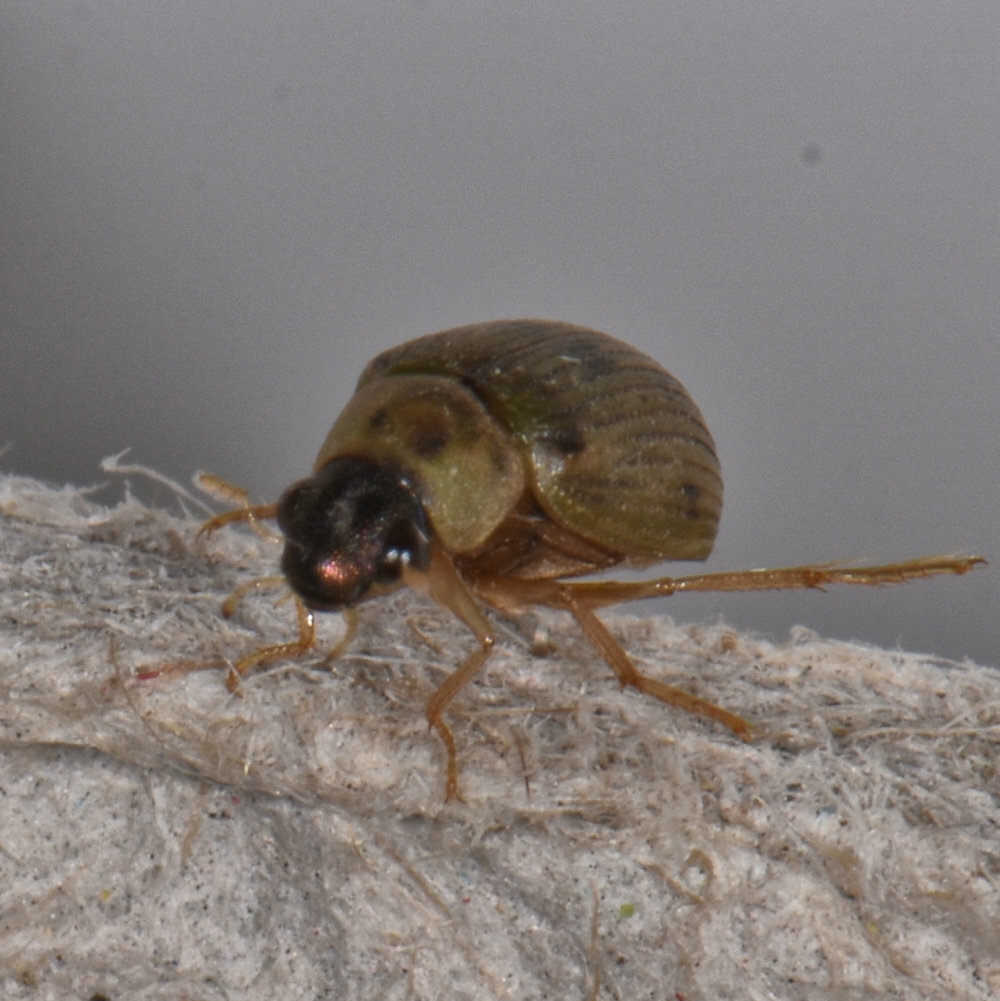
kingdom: Animalia
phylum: Arthropoda
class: Insecta
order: Coleoptera
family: Hydrophilidae
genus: Berosus
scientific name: Berosus
